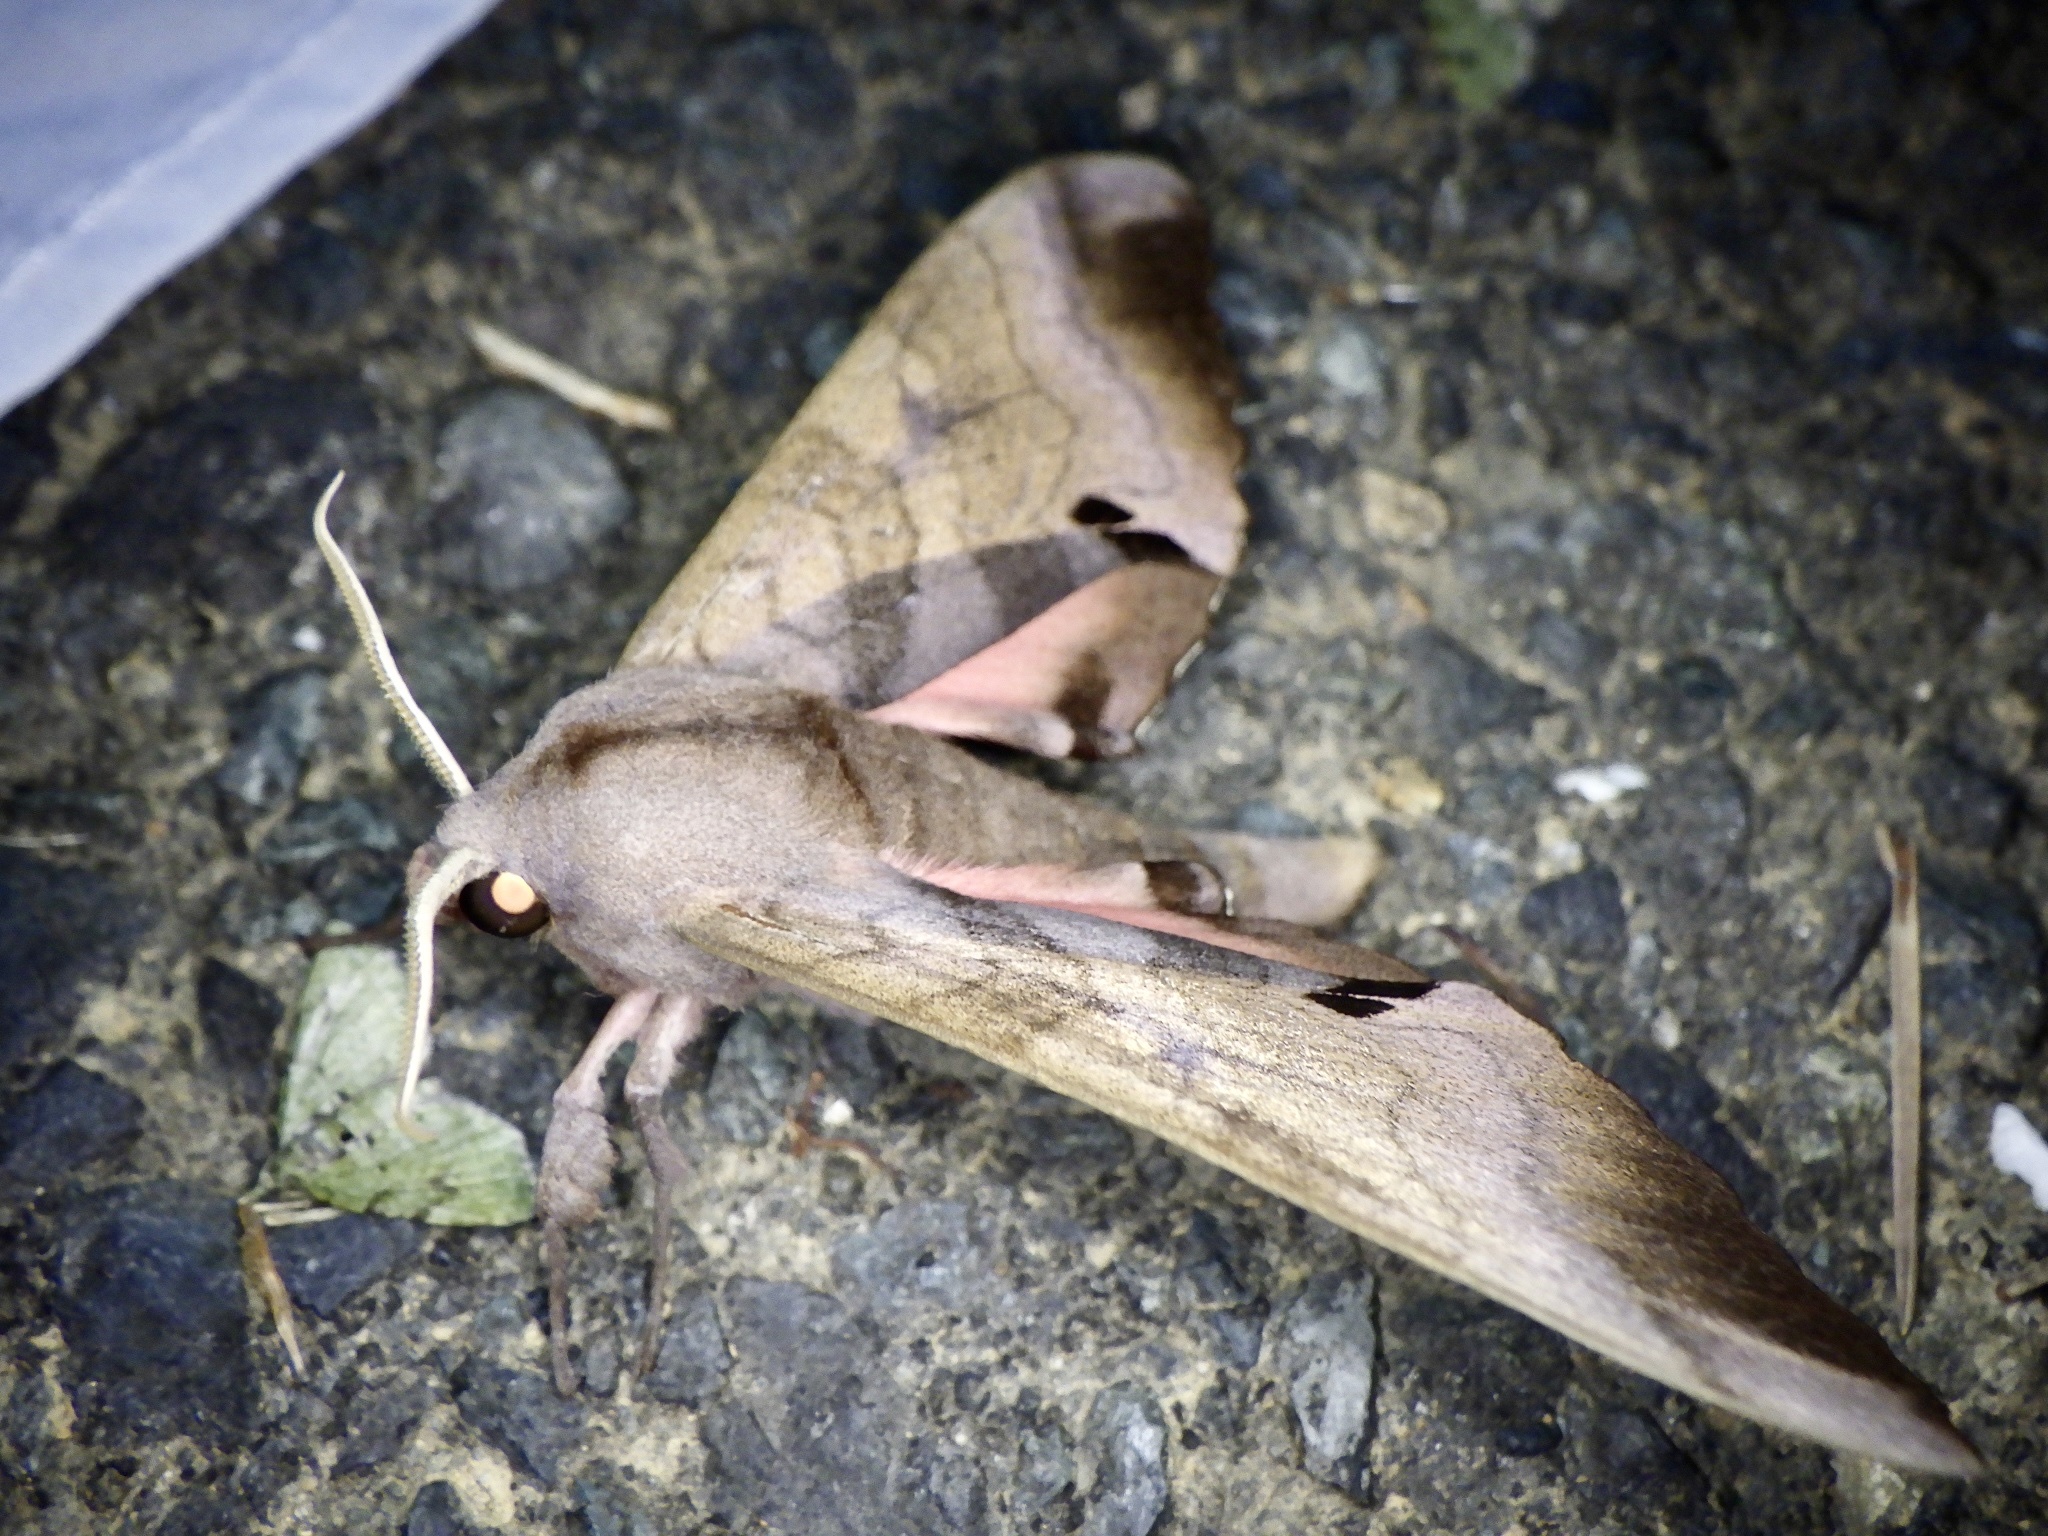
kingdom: Animalia
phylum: Arthropoda
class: Insecta
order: Lepidoptera
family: Sphingidae
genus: Marumba
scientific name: Marumba echephron
